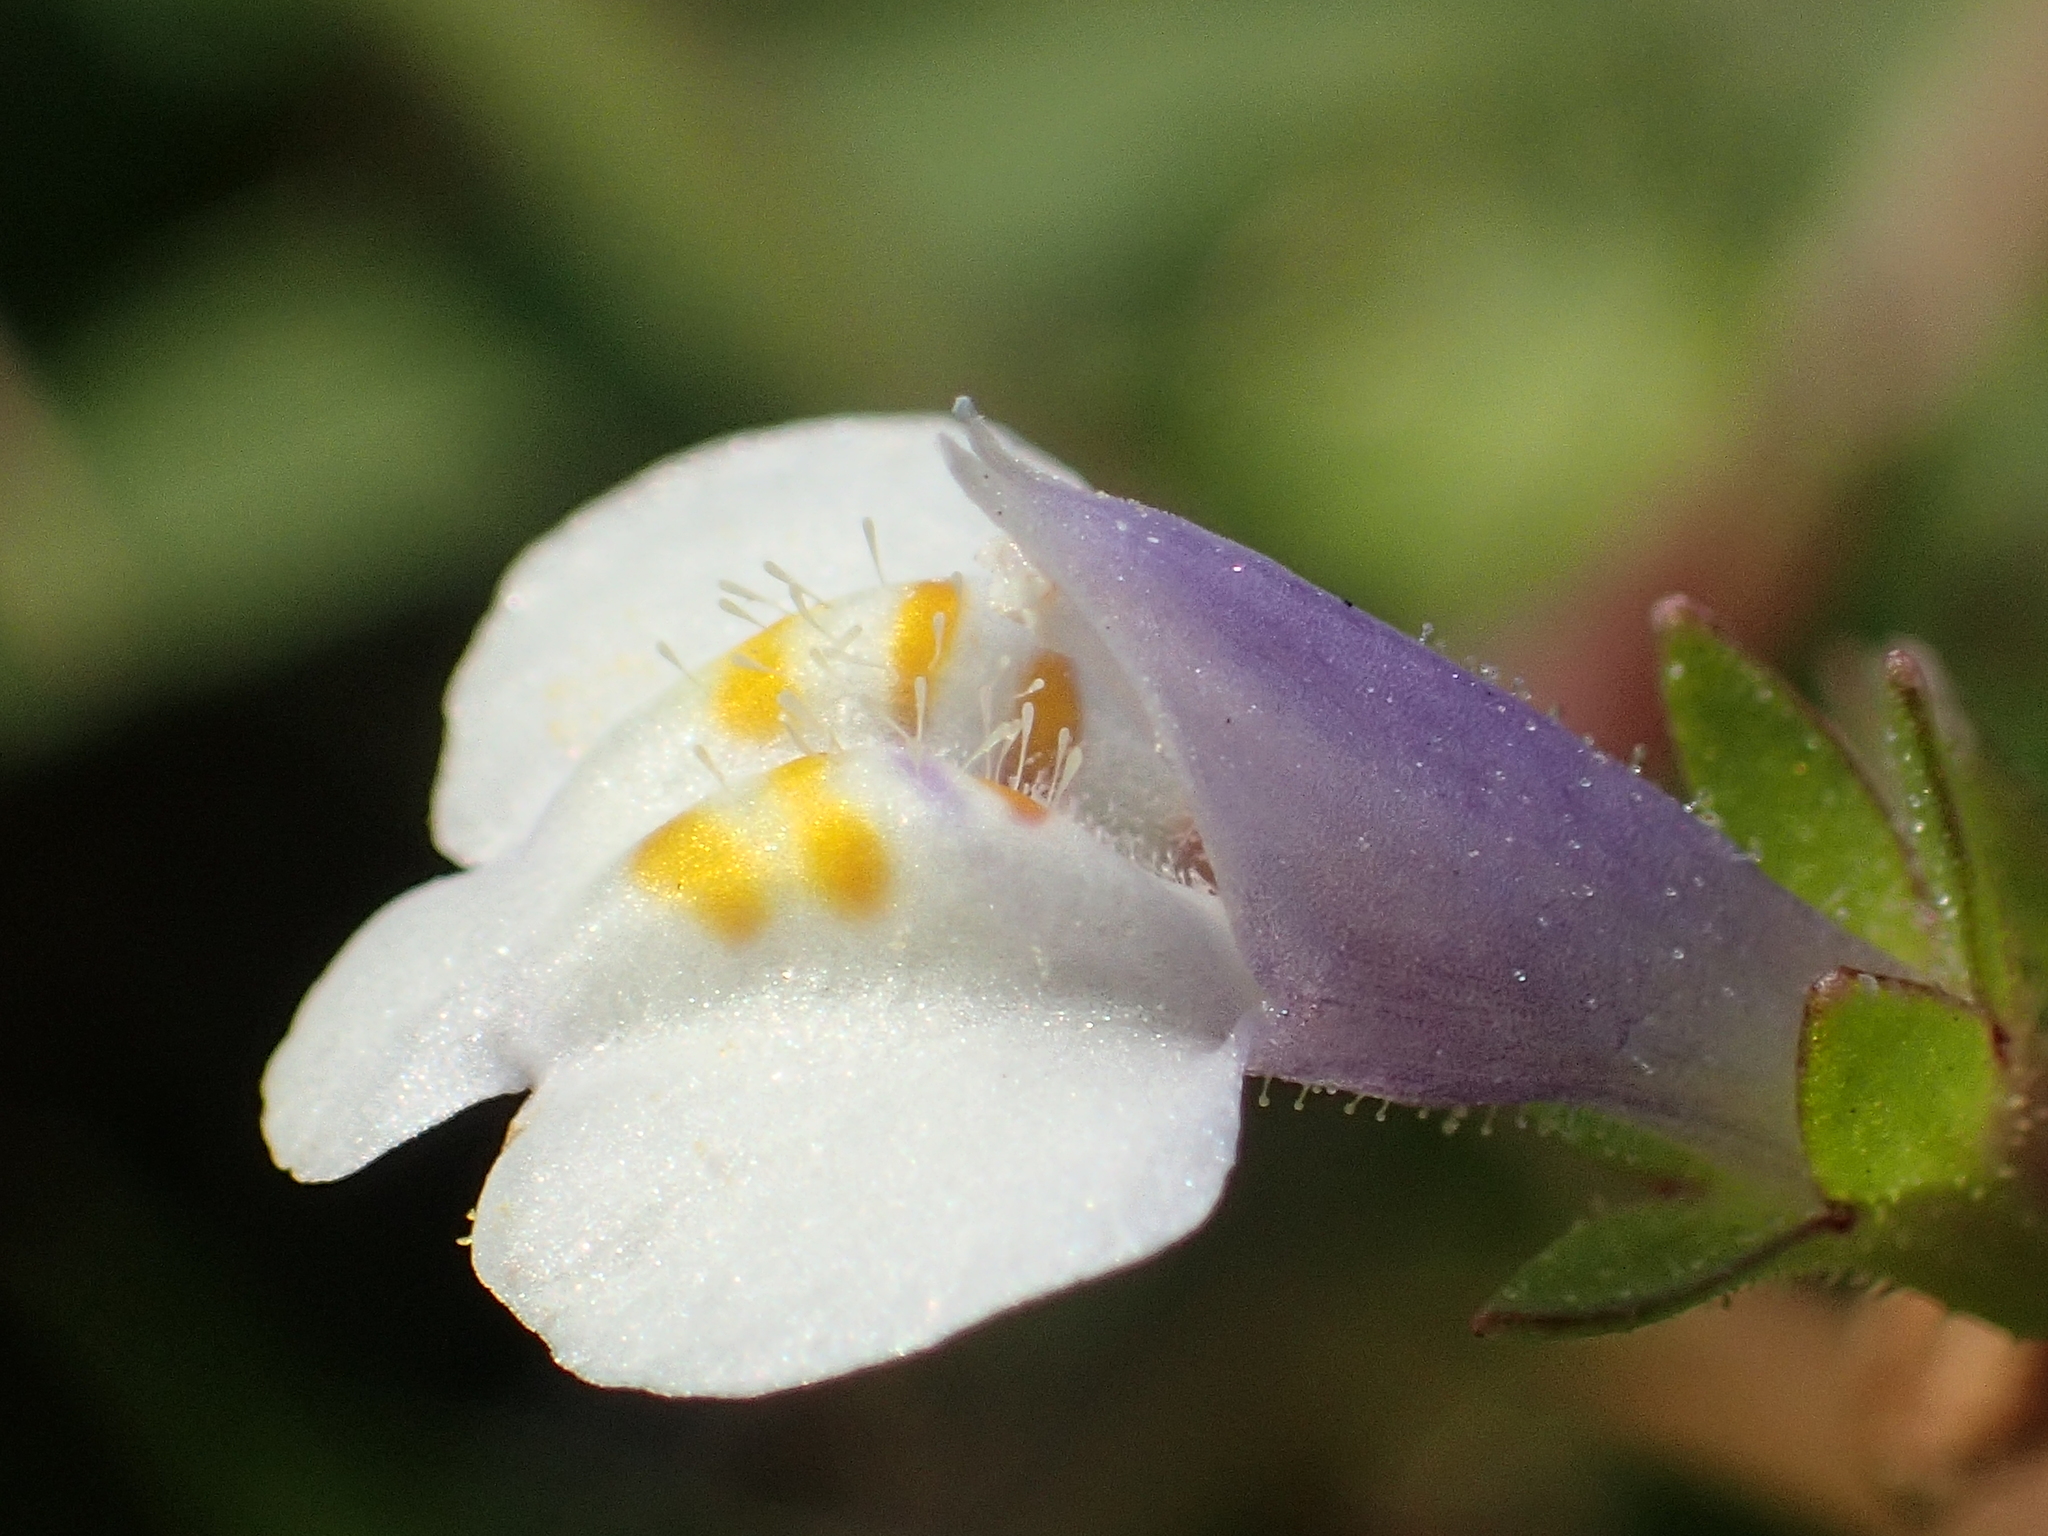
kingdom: Plantae
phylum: Tracheophyta
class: Magnoliopsida
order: Lamiales
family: Mazaceae
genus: Mazus
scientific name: Mazus pumilus
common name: Japanese mazus
